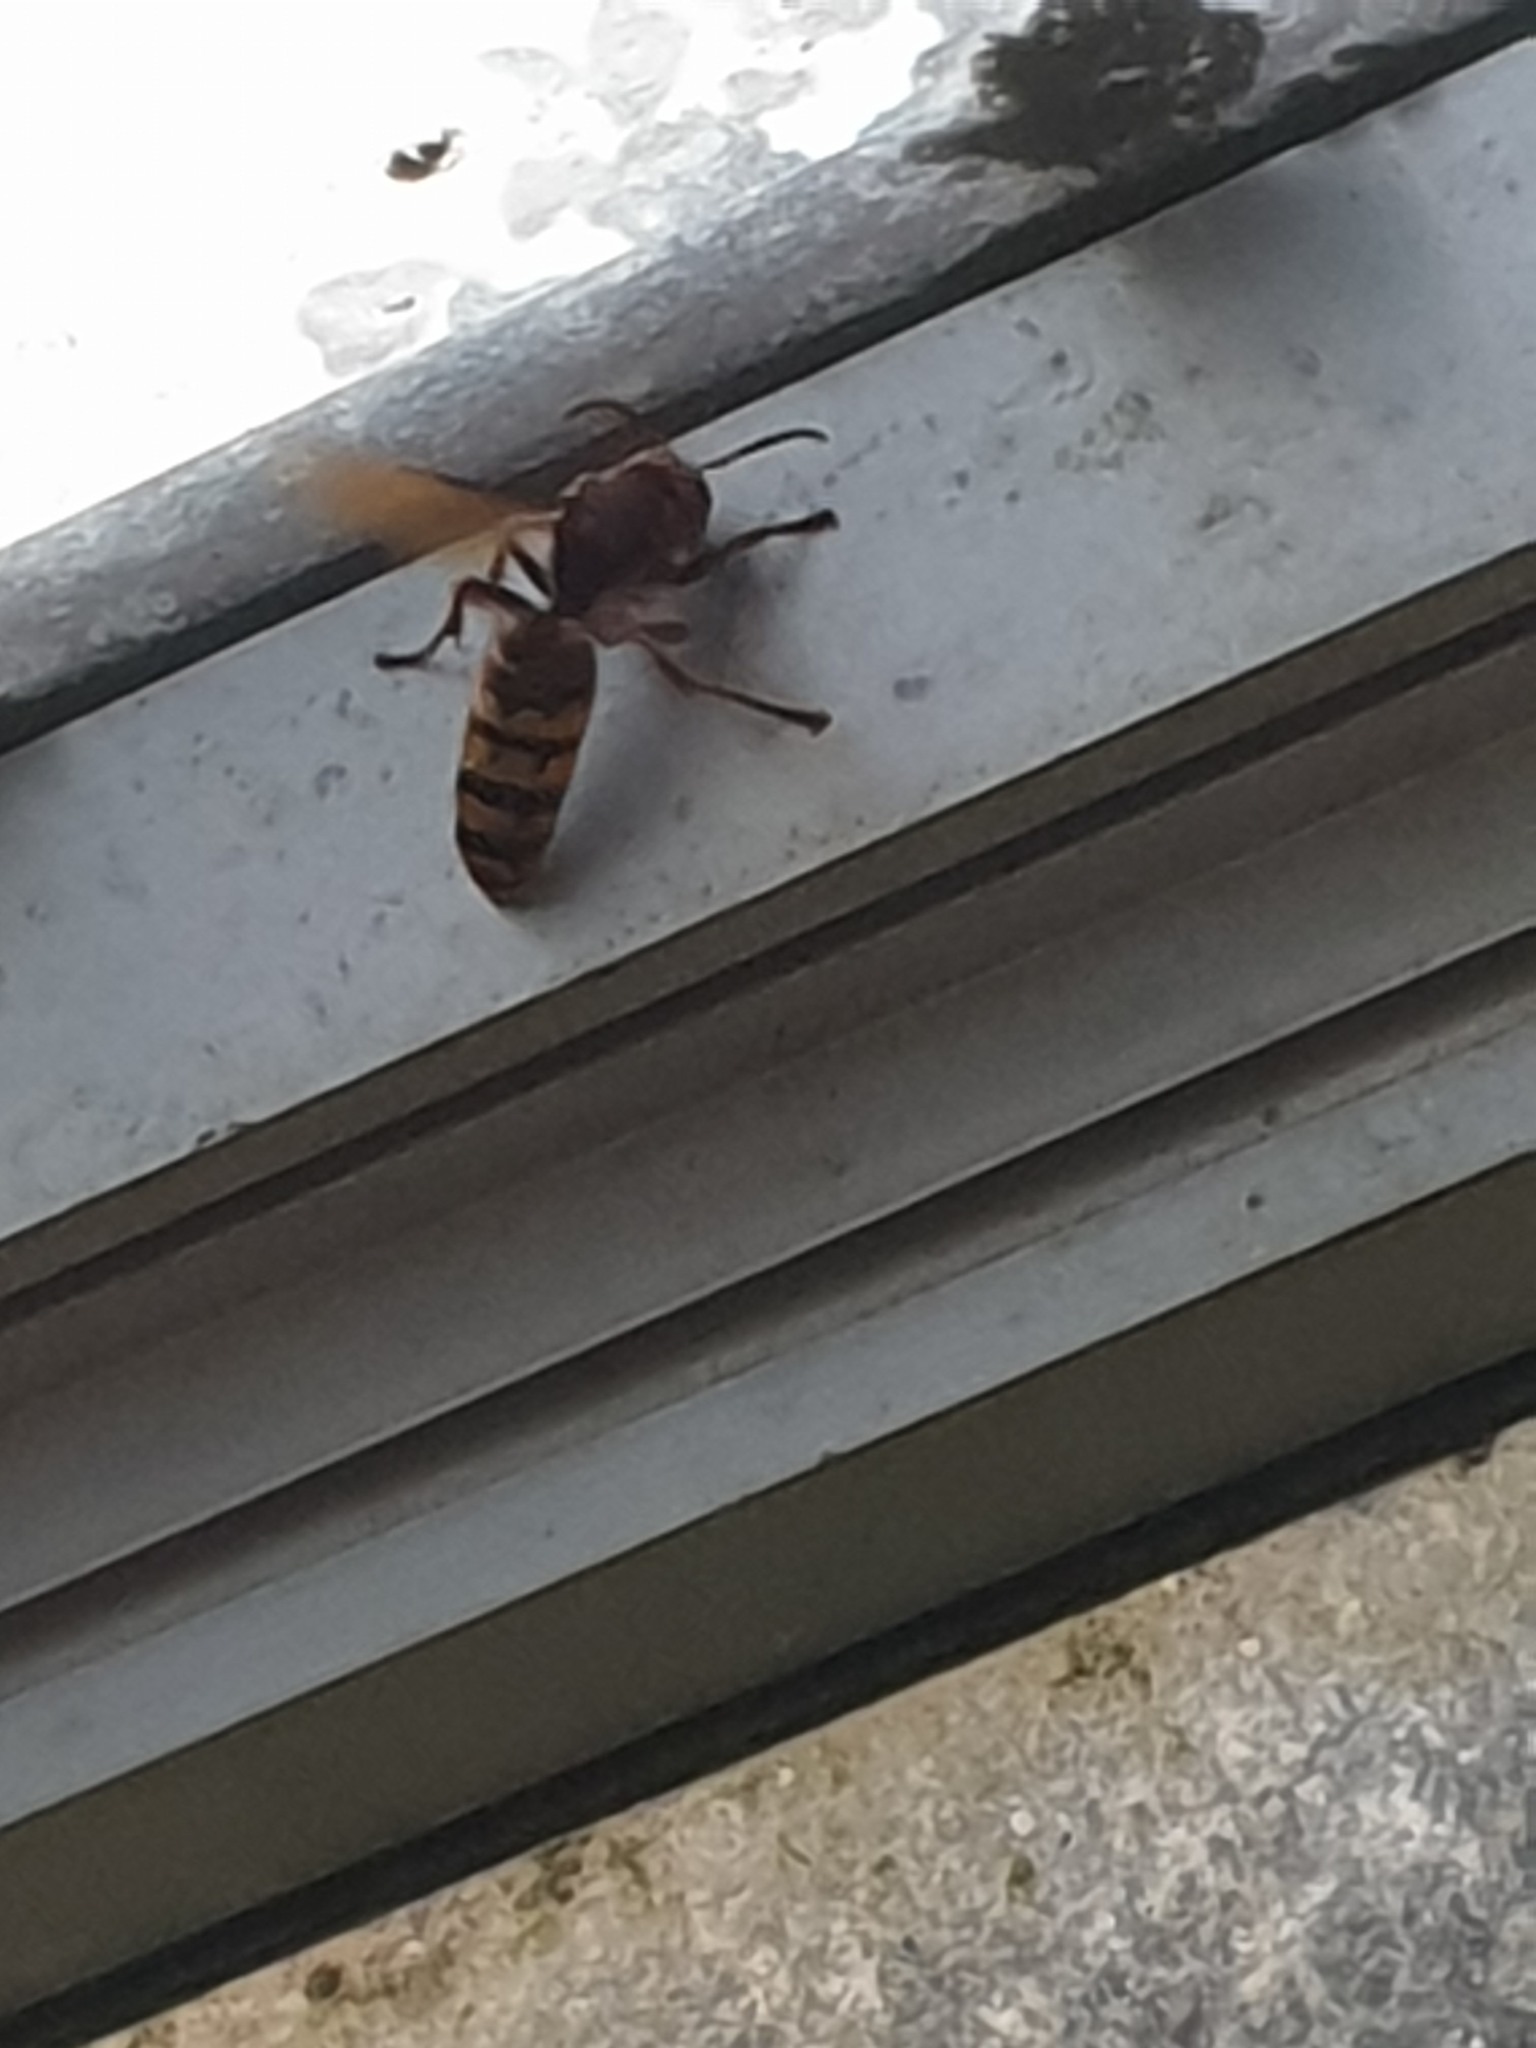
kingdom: Animalia
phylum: Arthropoda
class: Insecta
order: Hymenoptera
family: Vespidae
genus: Vespa
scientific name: Vespa crabro
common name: Hornet
